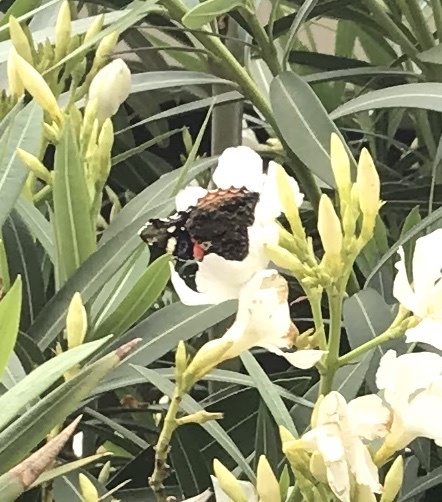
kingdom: Animalia
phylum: Arthropoda
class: Insecta
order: Lepidoptera
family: Nymphalidae
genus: Vanessa
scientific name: Vanessa atalanta
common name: Red admiral
